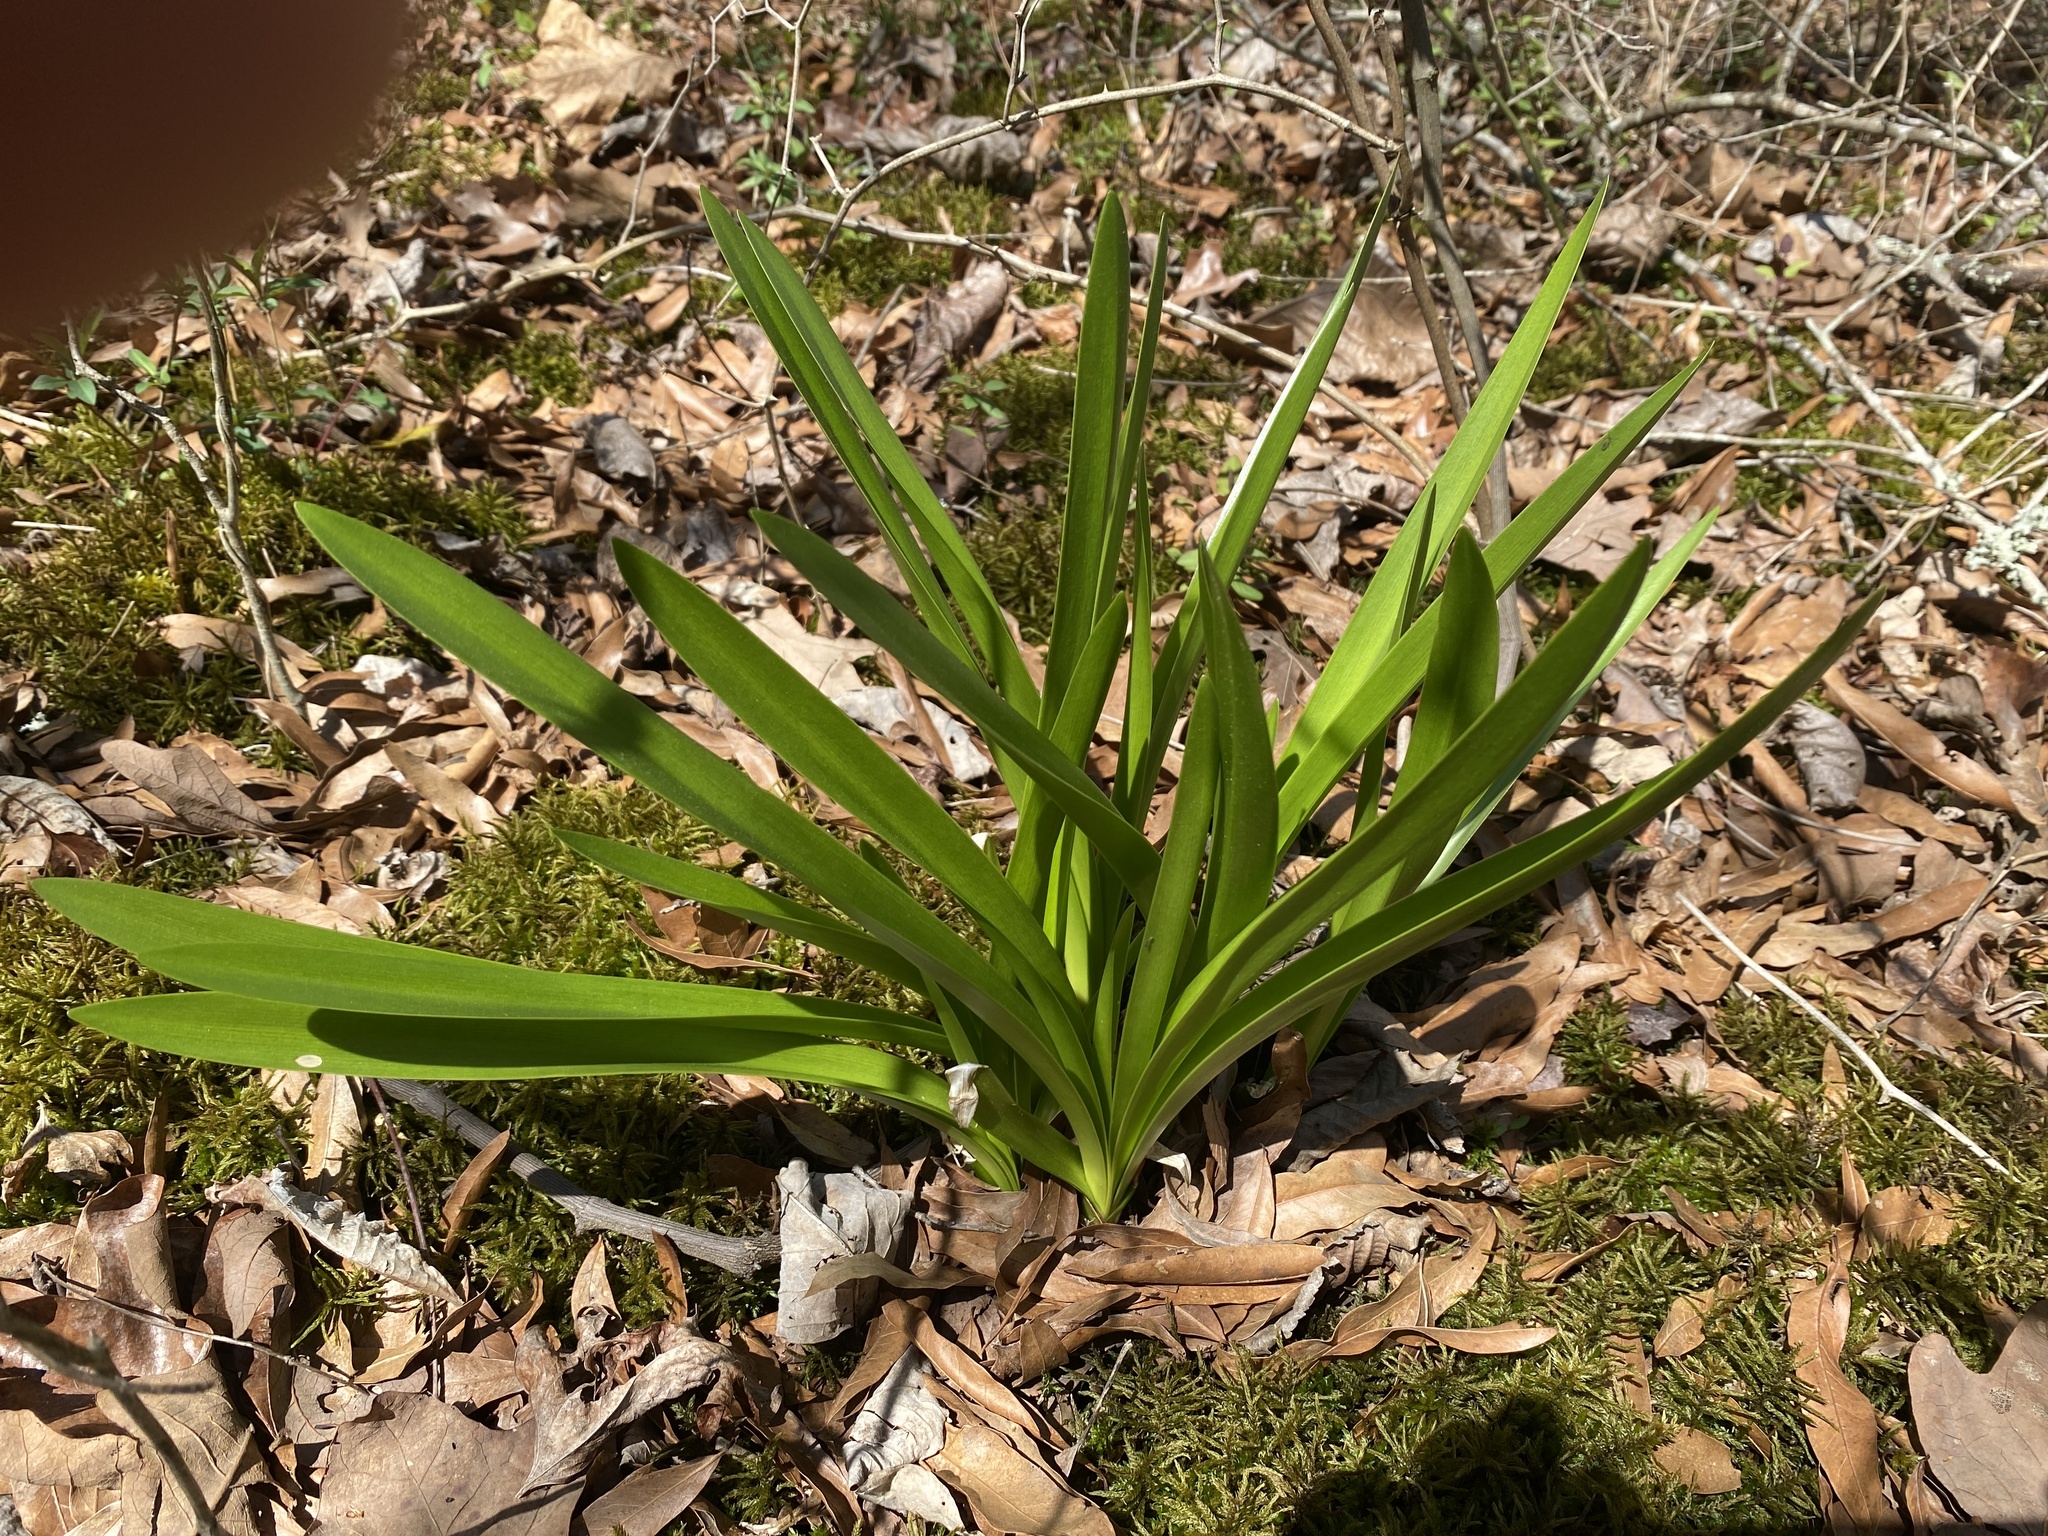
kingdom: Plantae
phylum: Tracheophyta
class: Liliopsida
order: Asparagales
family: Amaryllidaceae
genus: Hymenocallis
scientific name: Hymenocallis liriosme
